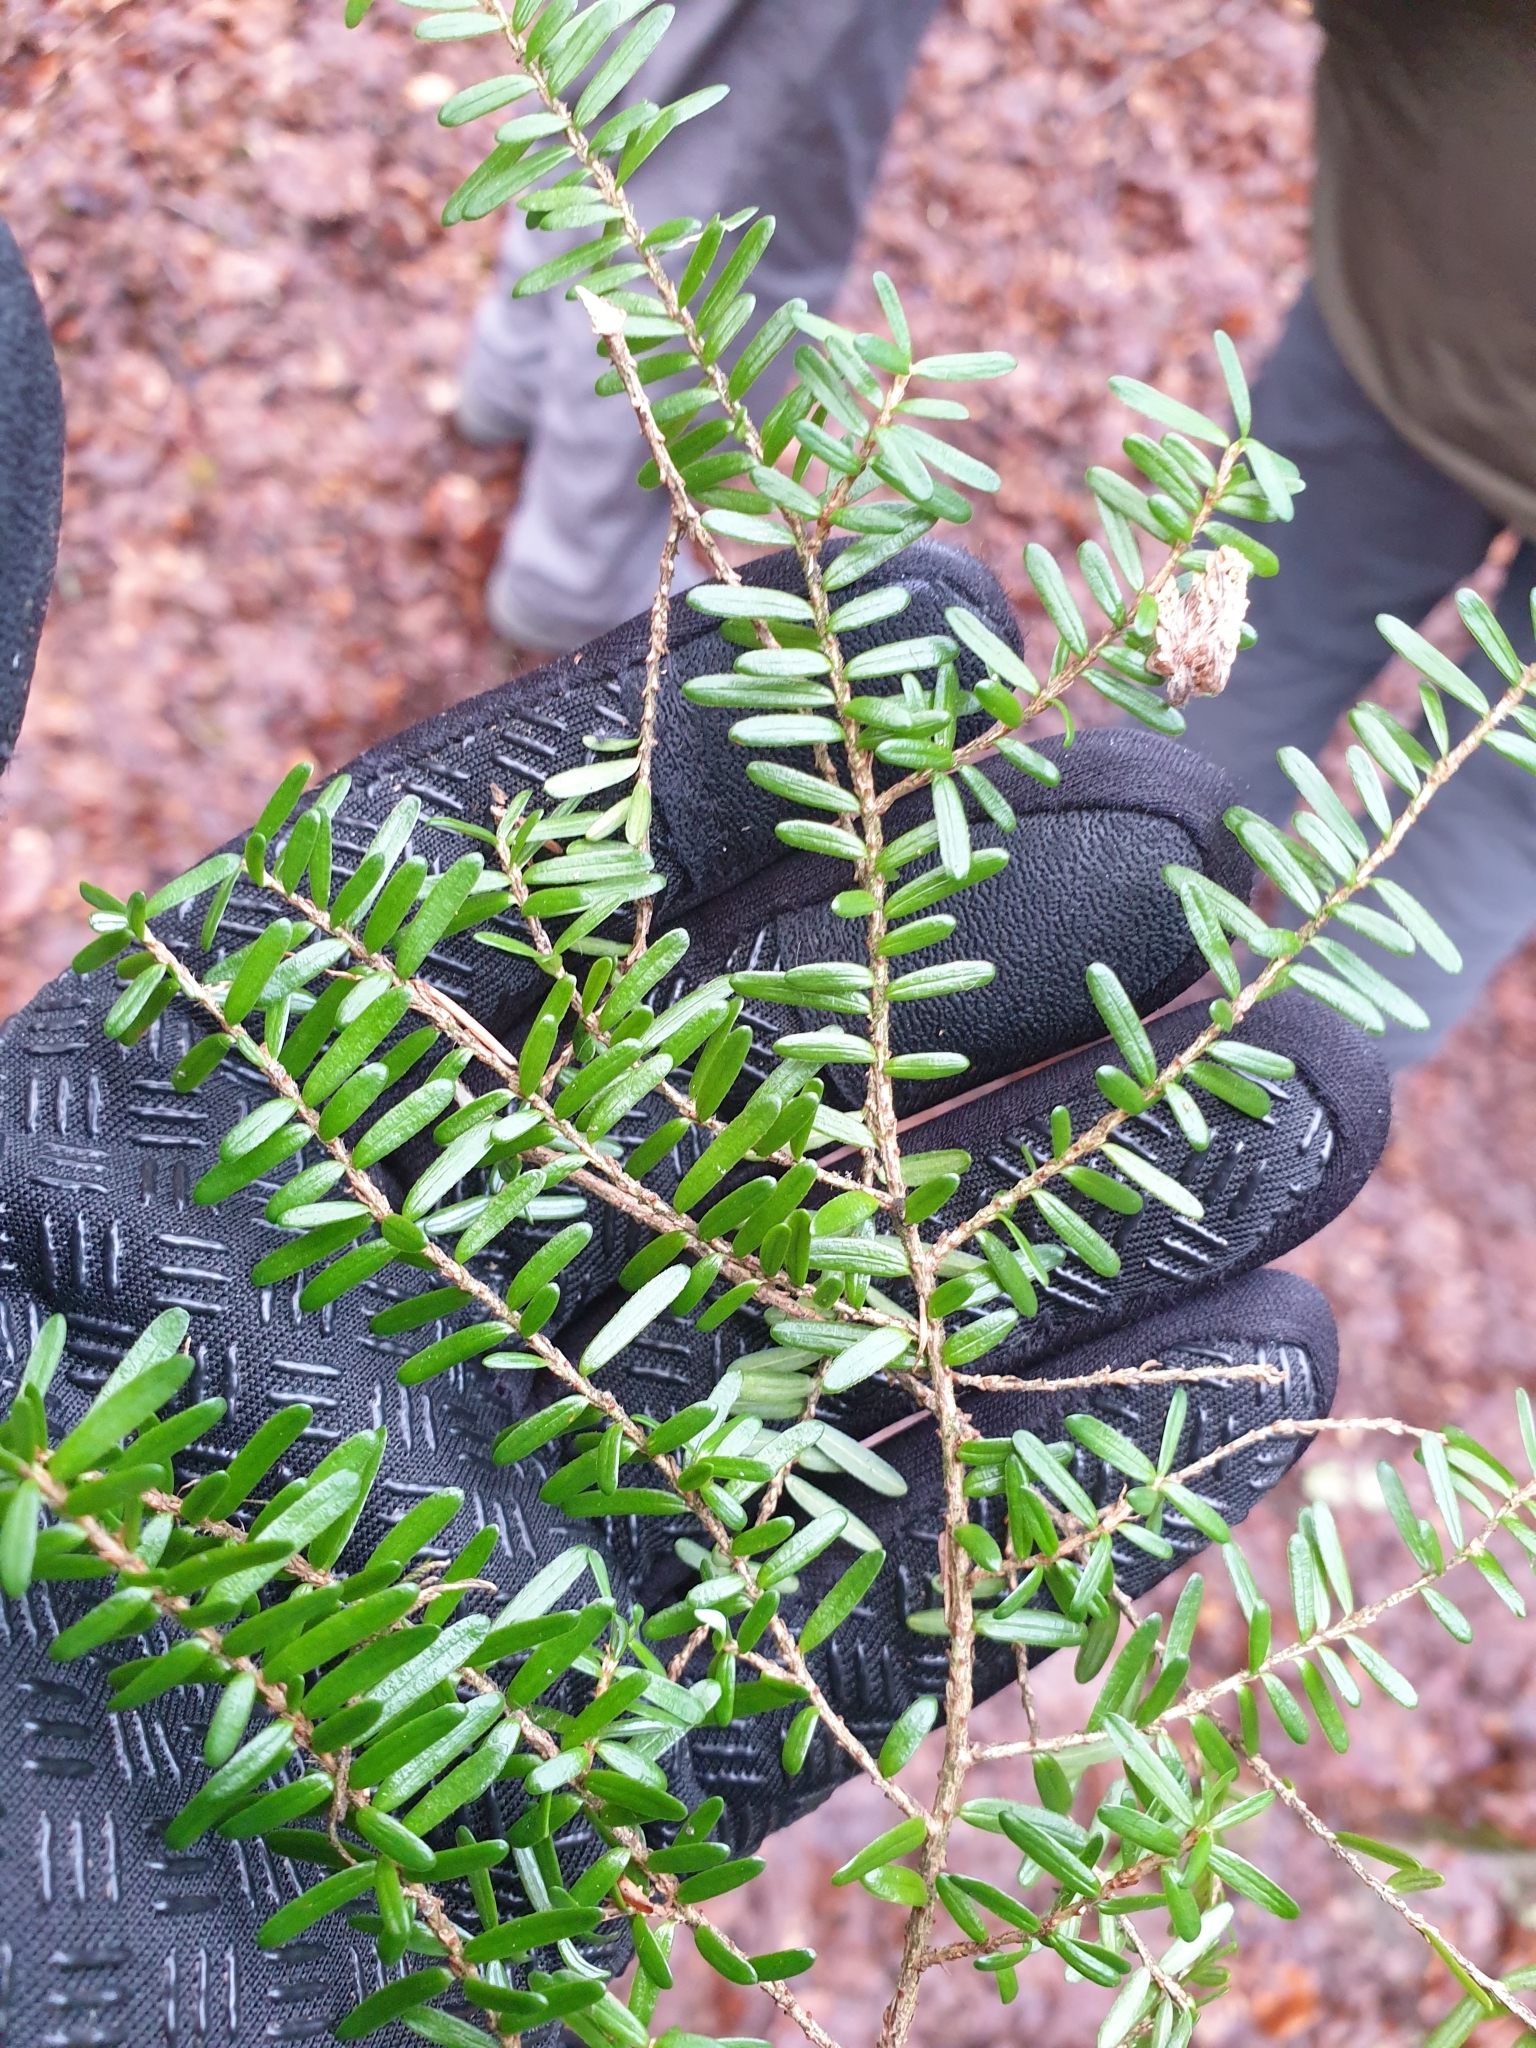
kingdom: Plantae
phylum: Tracheophyta
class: Pinopsida
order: Pinales
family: Pinaceae
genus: Tsuga
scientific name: Tsuga heterophylla
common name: Western hemlock
